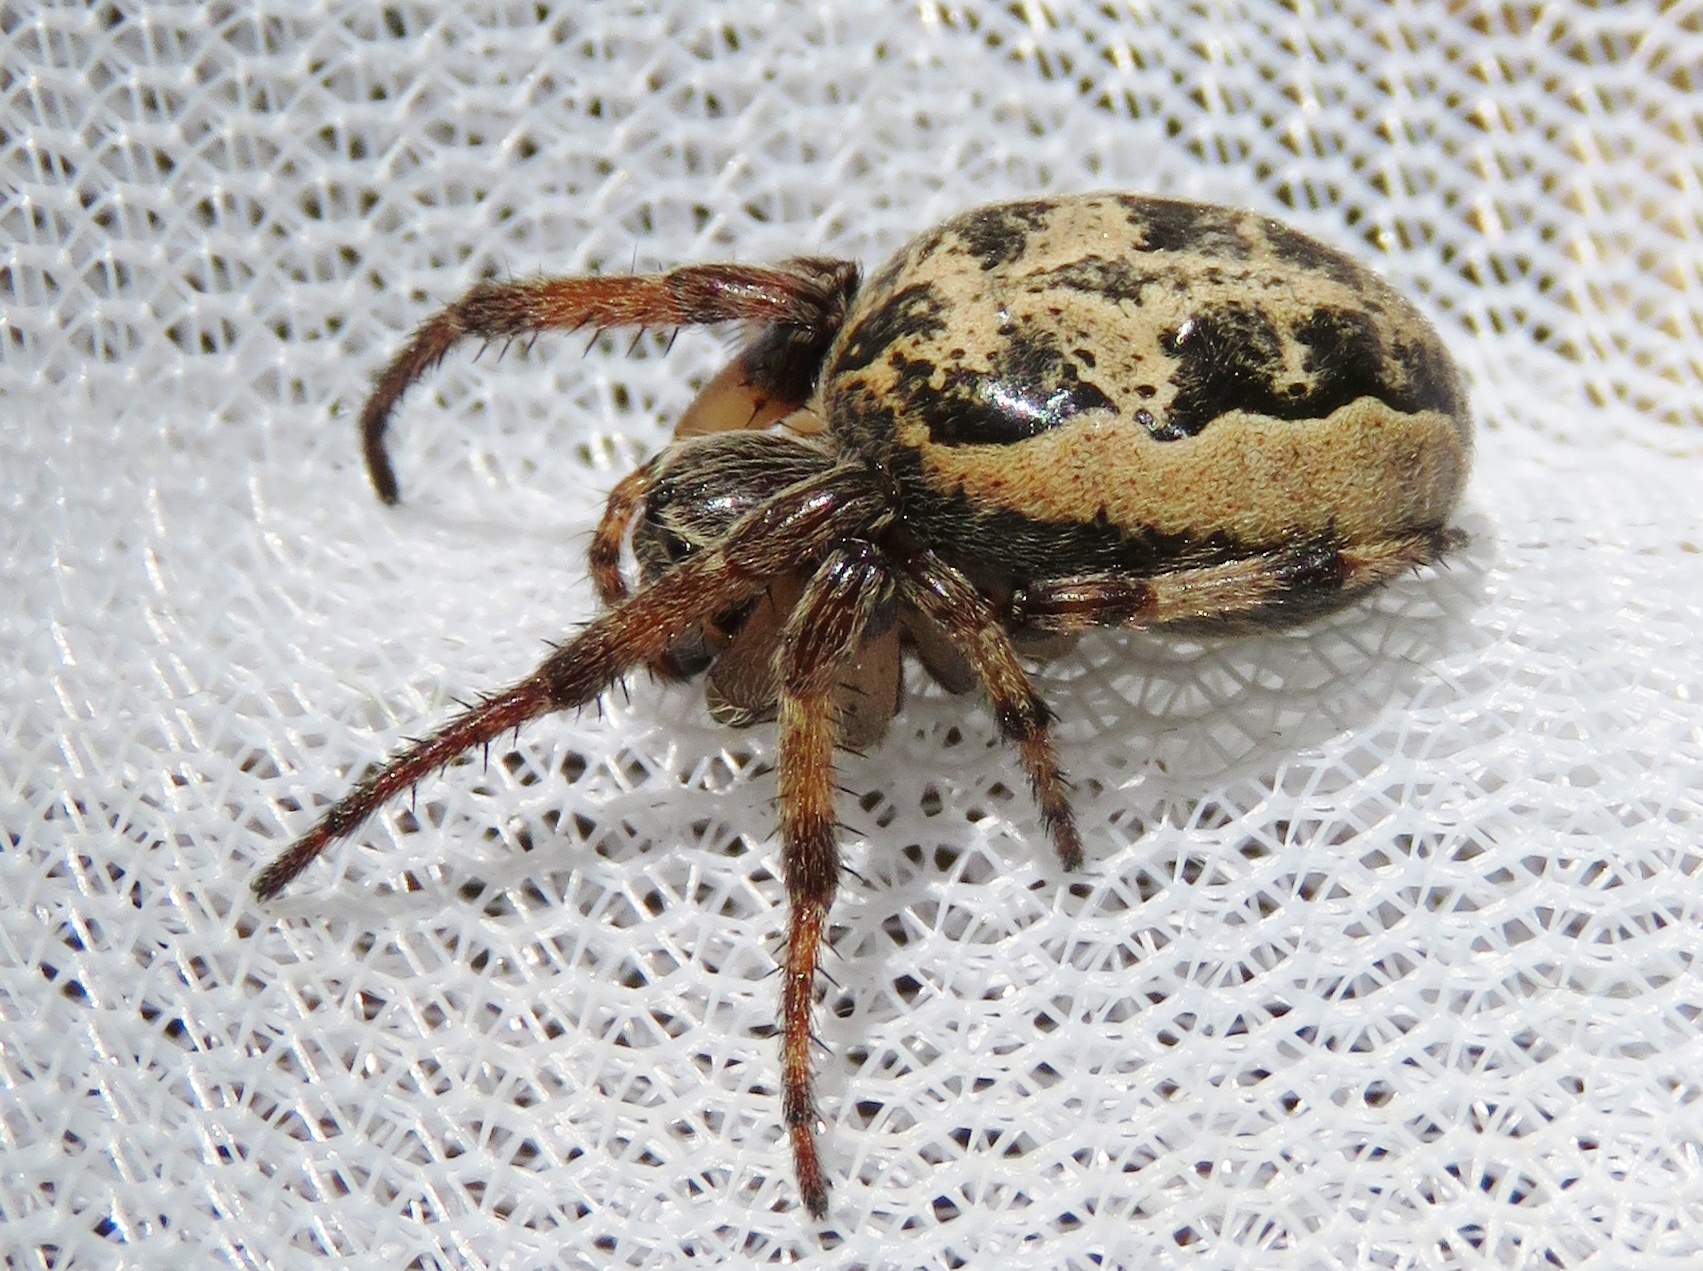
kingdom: Animalia
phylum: Arthropoda
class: Arachnida
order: Araneae
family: Araneidae
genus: Larinioides
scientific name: Larinioides cornutus
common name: Furrow orbweaver
